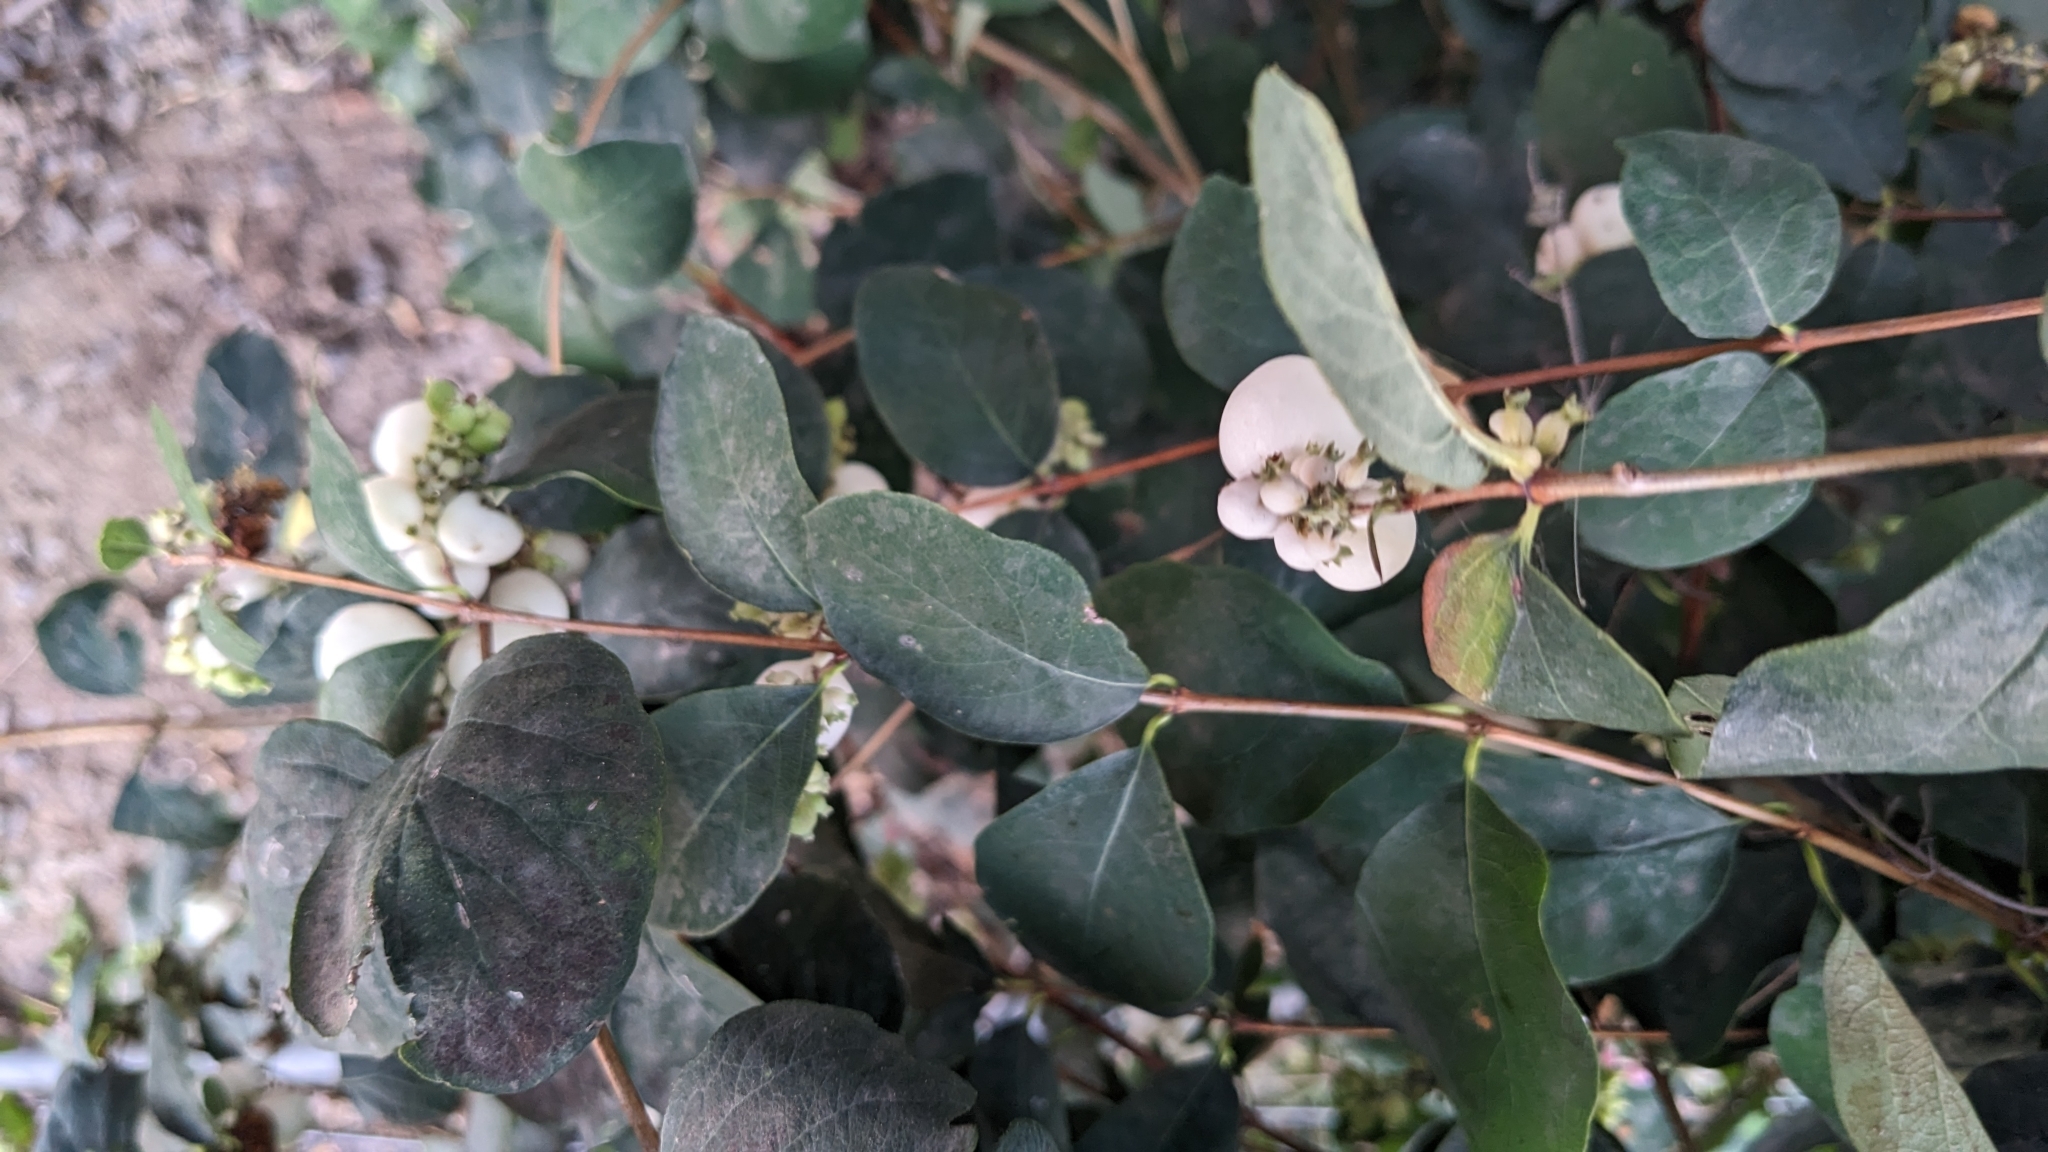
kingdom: Plantae
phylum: Tracheophyta
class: Magnoliopsida
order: Dipsacales
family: Caprifoliaceae
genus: Symphoricarpos
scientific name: Symphoricarpos albus
